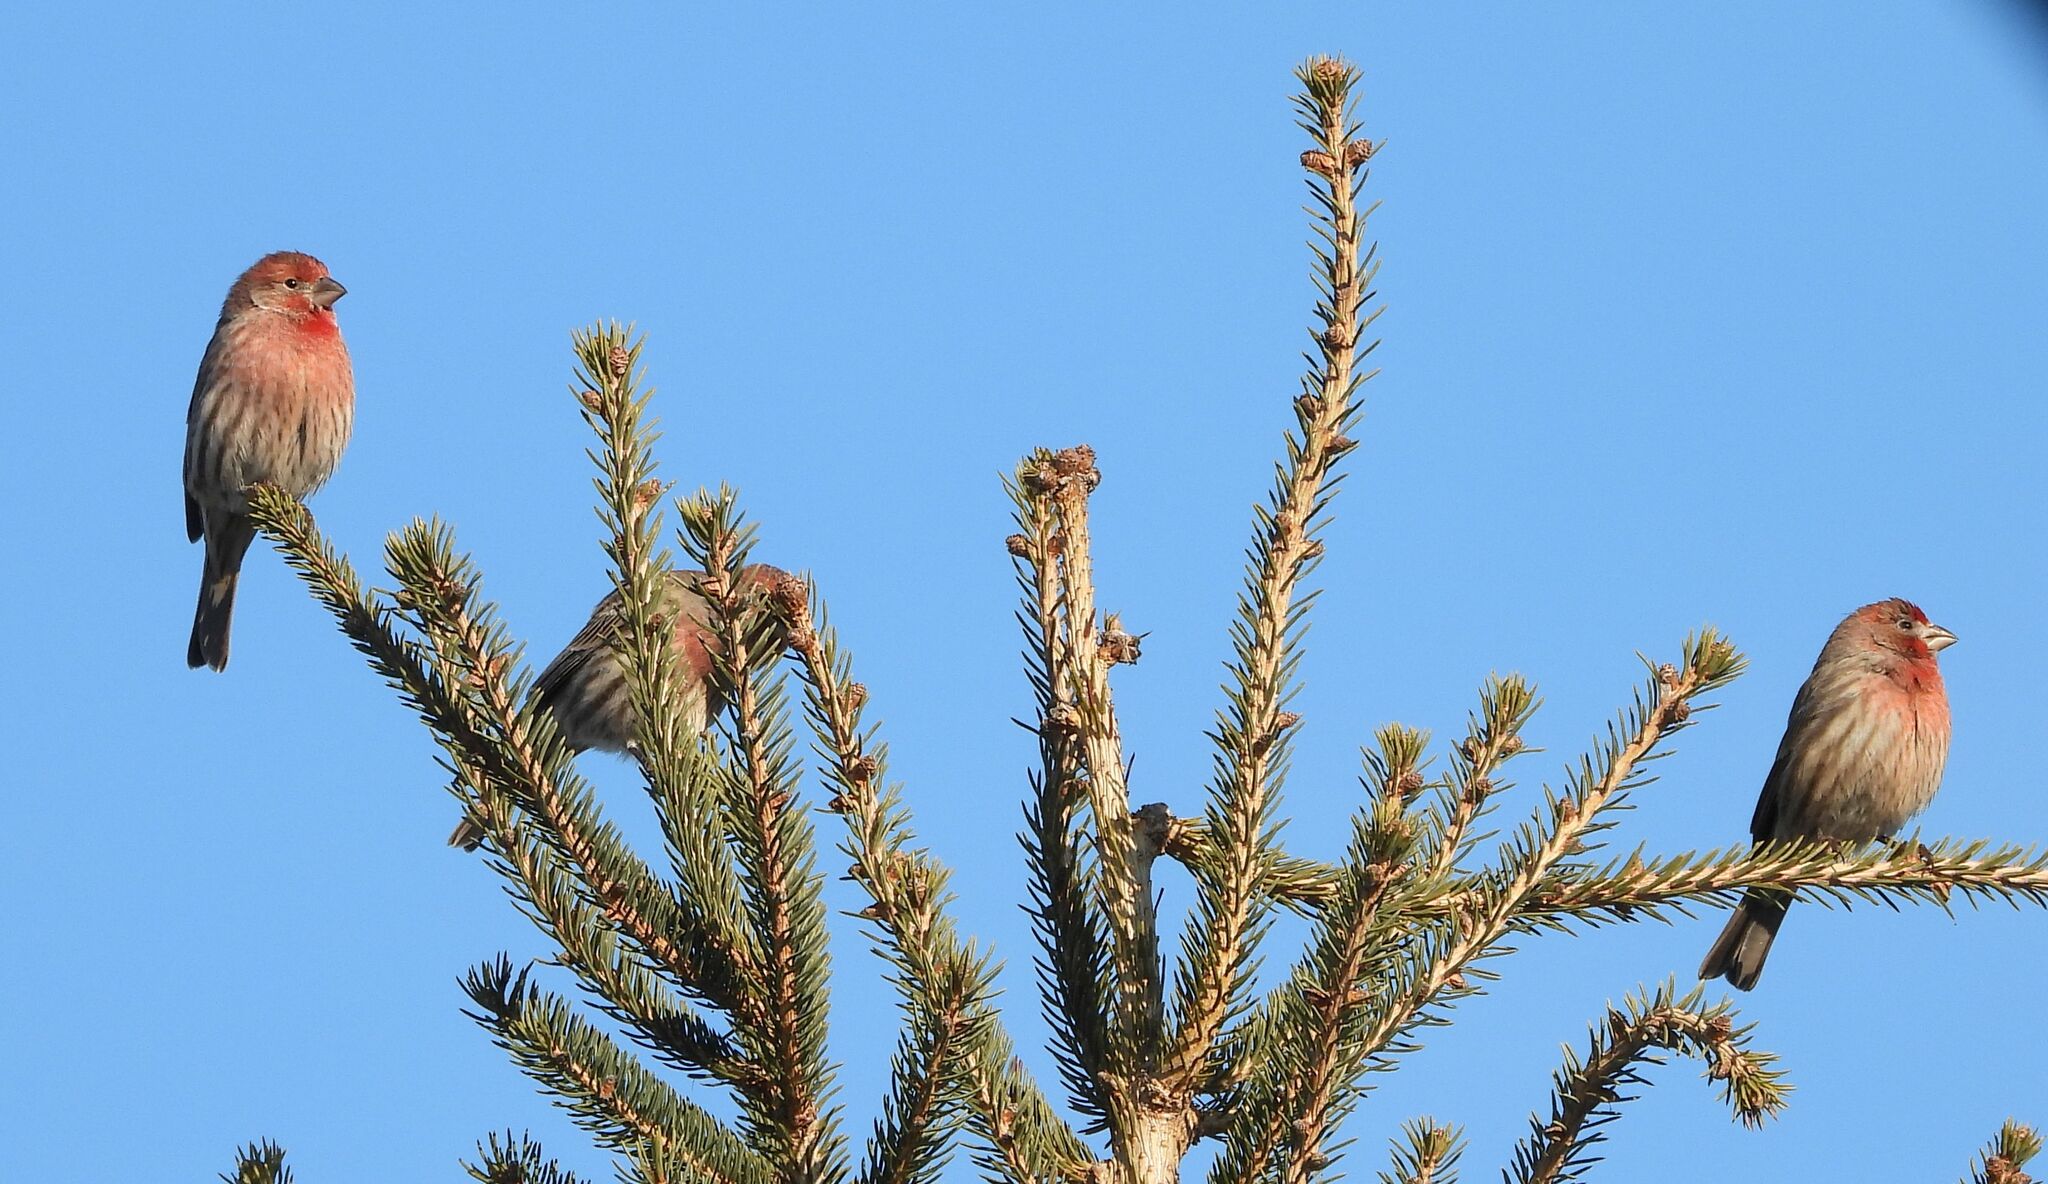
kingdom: Animalia
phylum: Chordata
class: Aves
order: Passeriformes
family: Fringillidae
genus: Haemorhous
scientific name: Haemorhous mexicanus
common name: House finch
